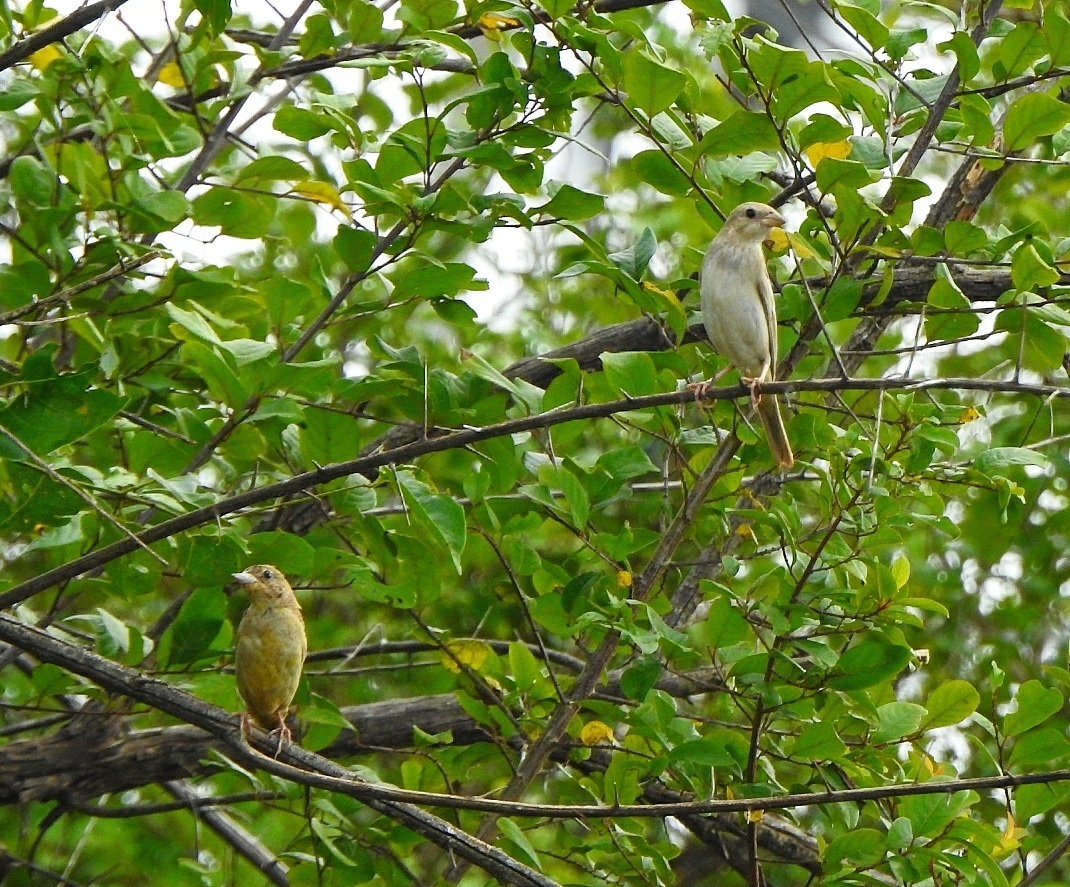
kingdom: Animalia
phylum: Chordata
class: Aves
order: Passeriformes
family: Emberizidae
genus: Emberiza
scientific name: Emberiza melanocephala
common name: Black-headed bunting
